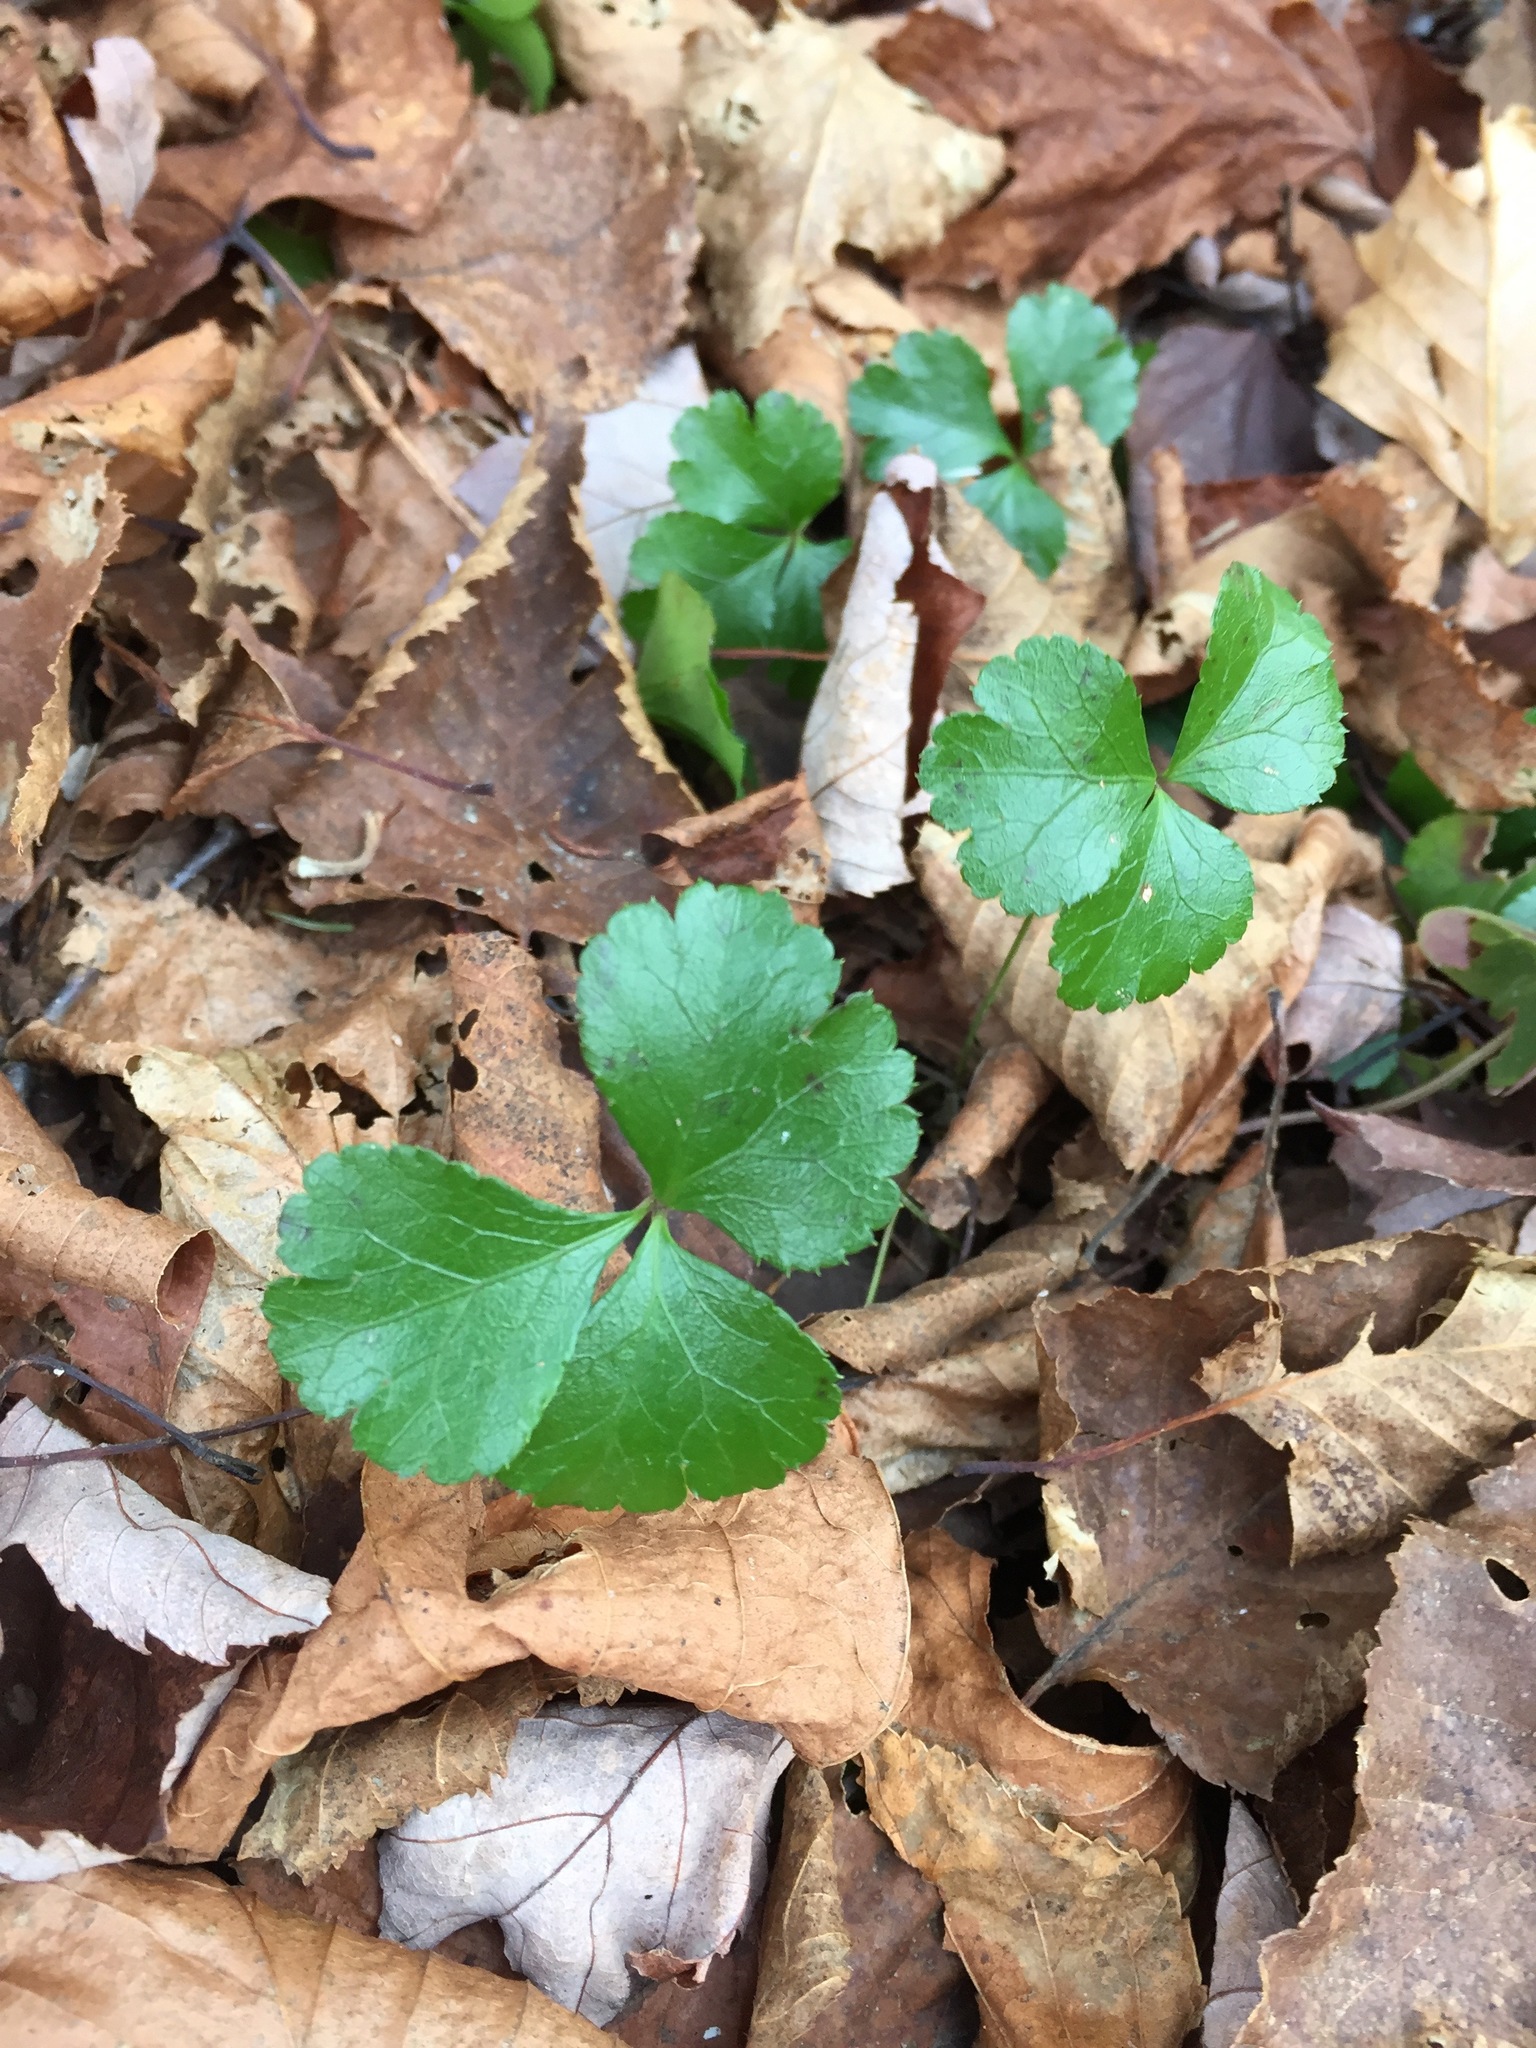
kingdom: Plantae
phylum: Tracheophyta
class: Magnoliopsida
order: Ranunculales
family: Ranunculaceae
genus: Coptis
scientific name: Coptis trifolia
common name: Canker-root
